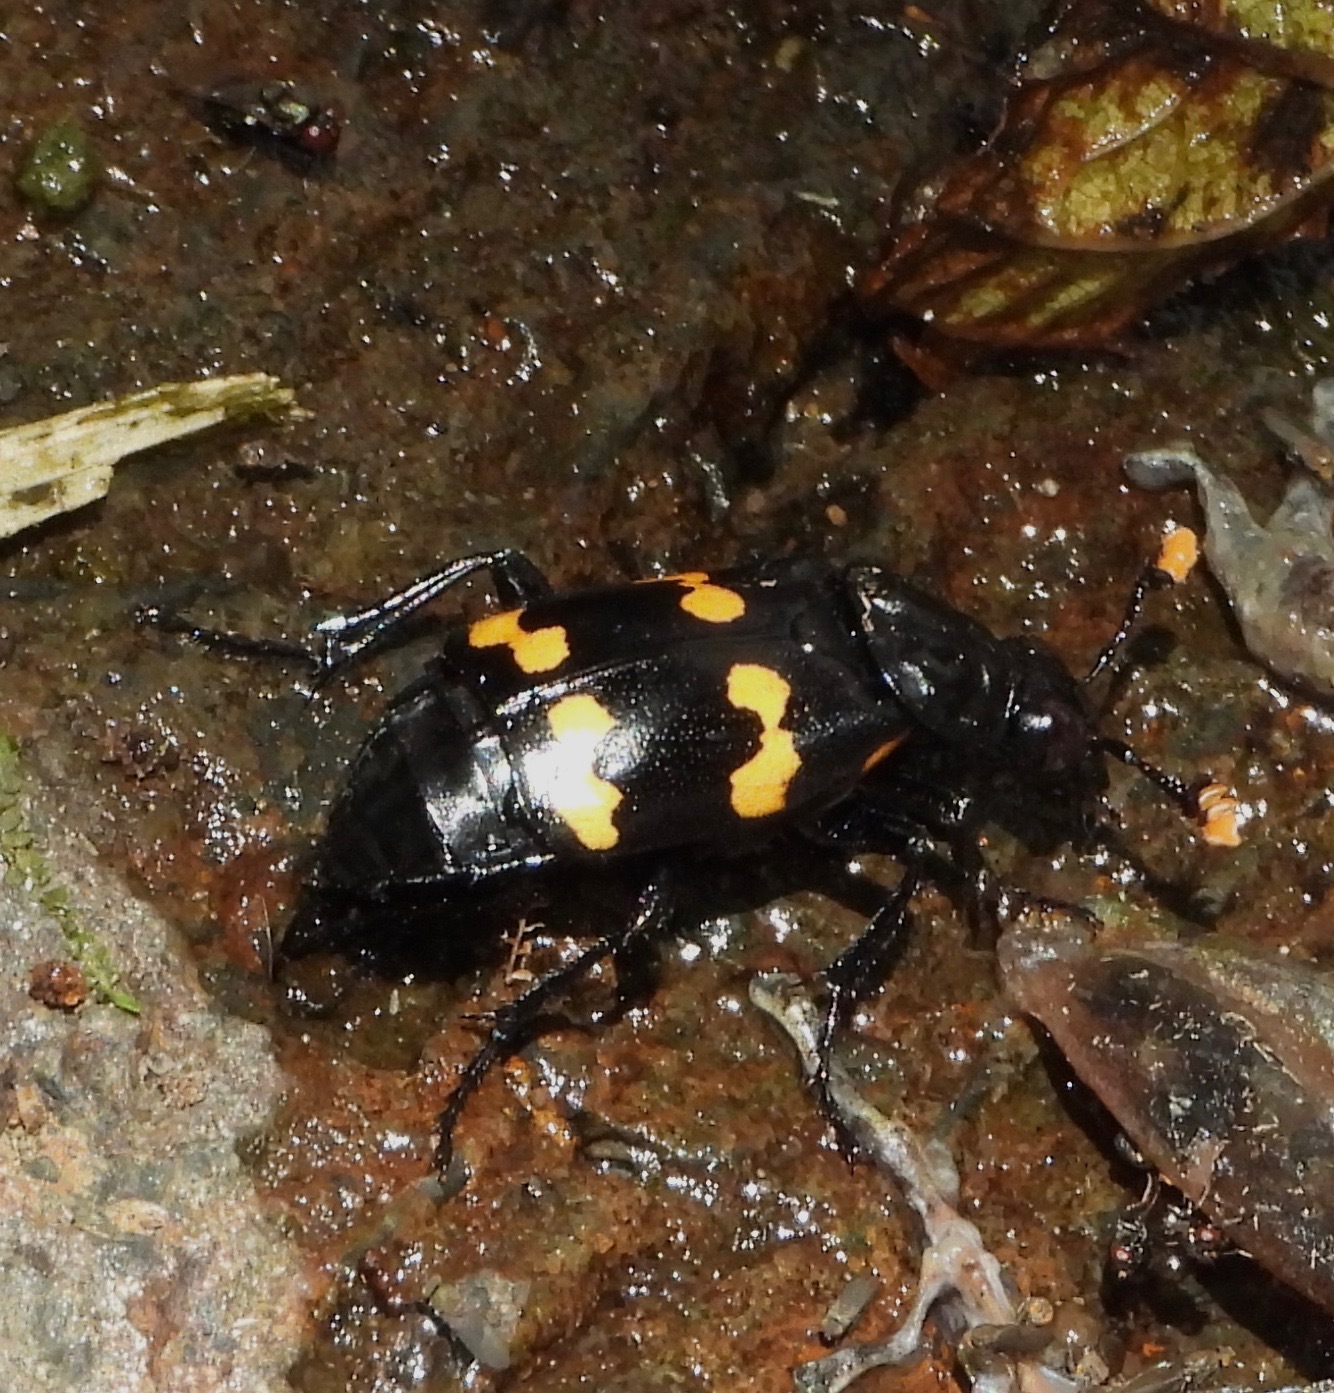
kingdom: Animalia
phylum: Arthropoda
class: Insecta
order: Coleoptera
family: Staphylinidae
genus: Nicrophorus
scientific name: Nicrophorus didymus
